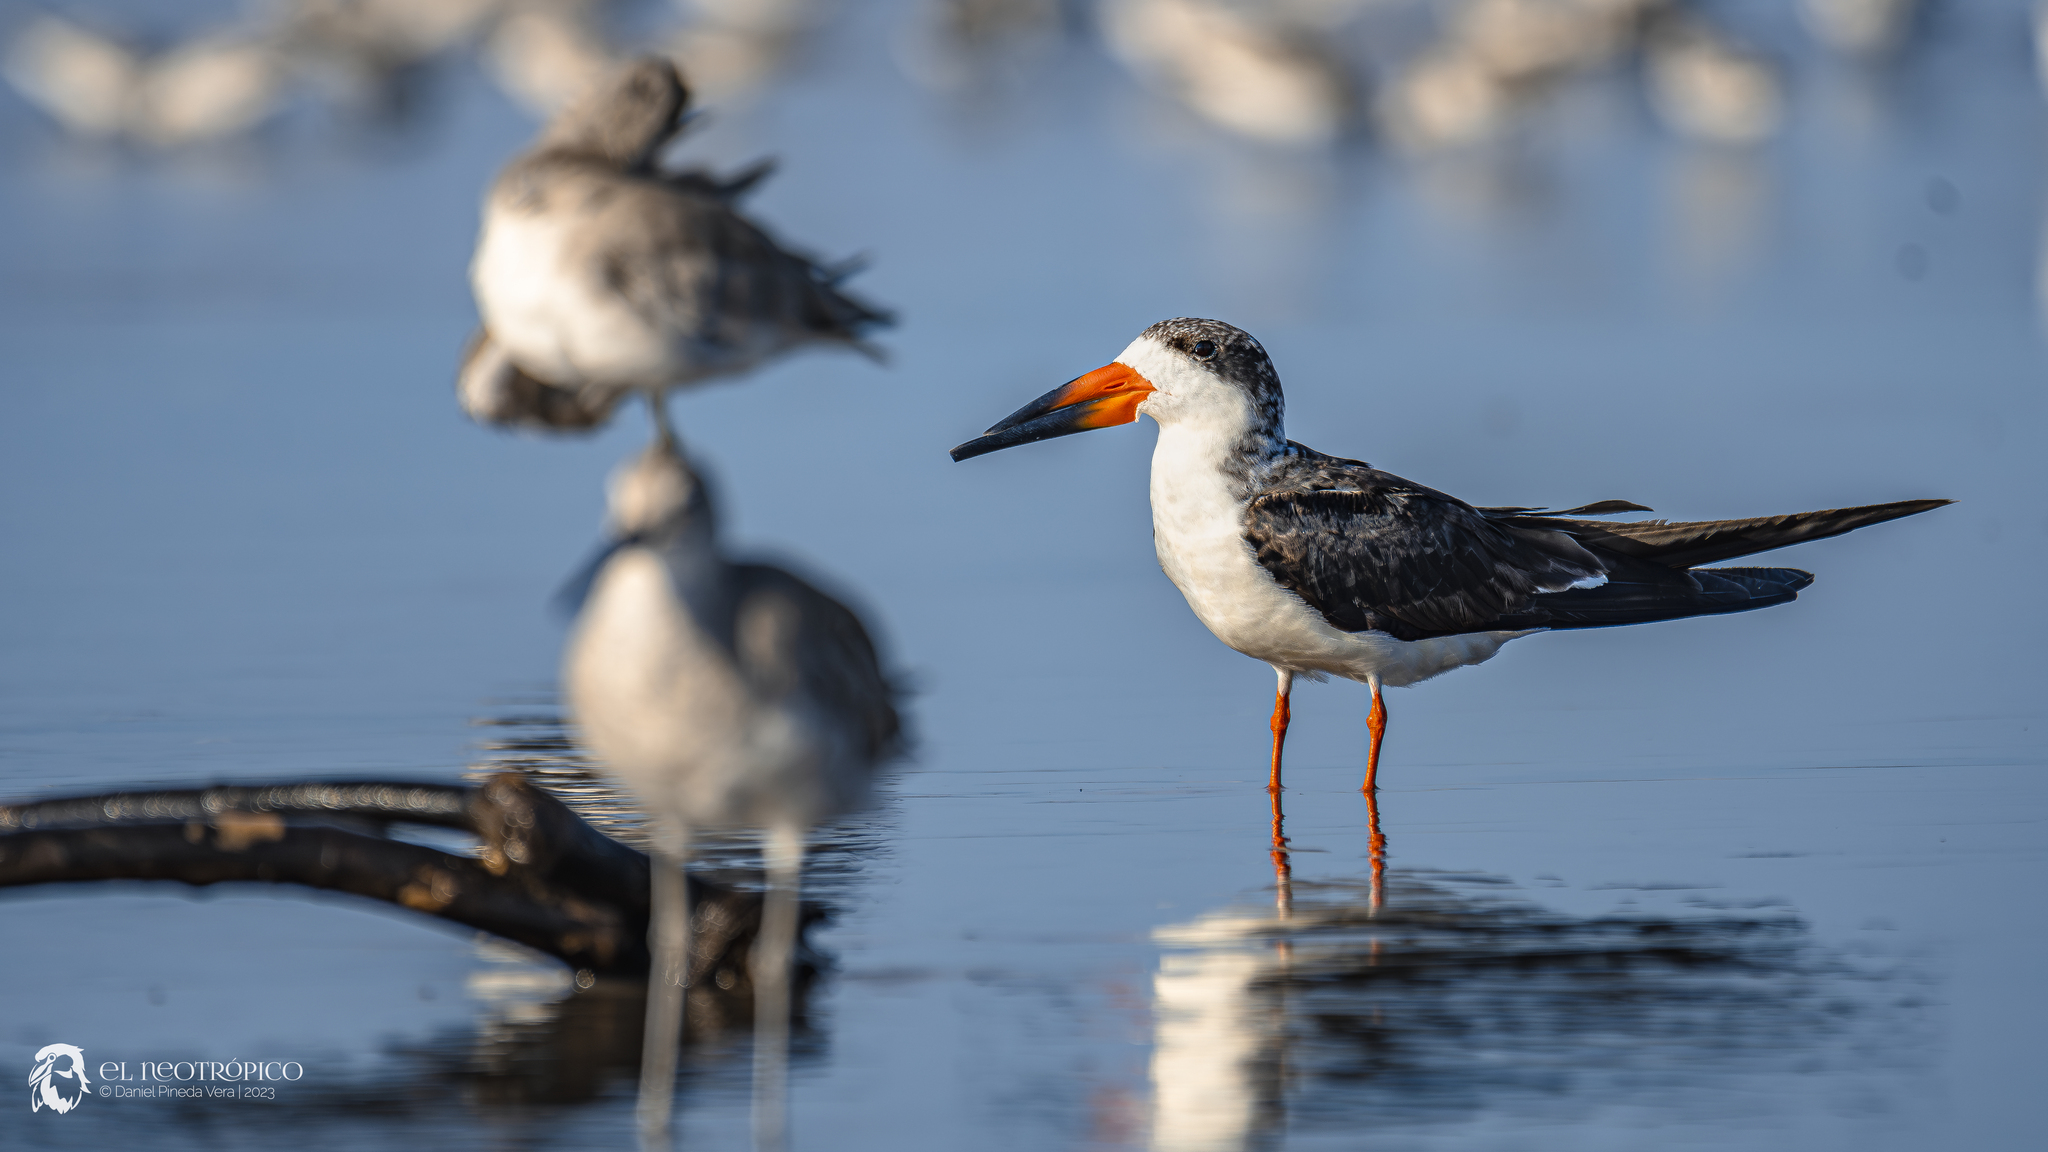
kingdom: Animalia
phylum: Chordata
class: Aves
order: Charadriiformes
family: Laridae
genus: Rynchops
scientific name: Rynchops niger
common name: Black skimmer
